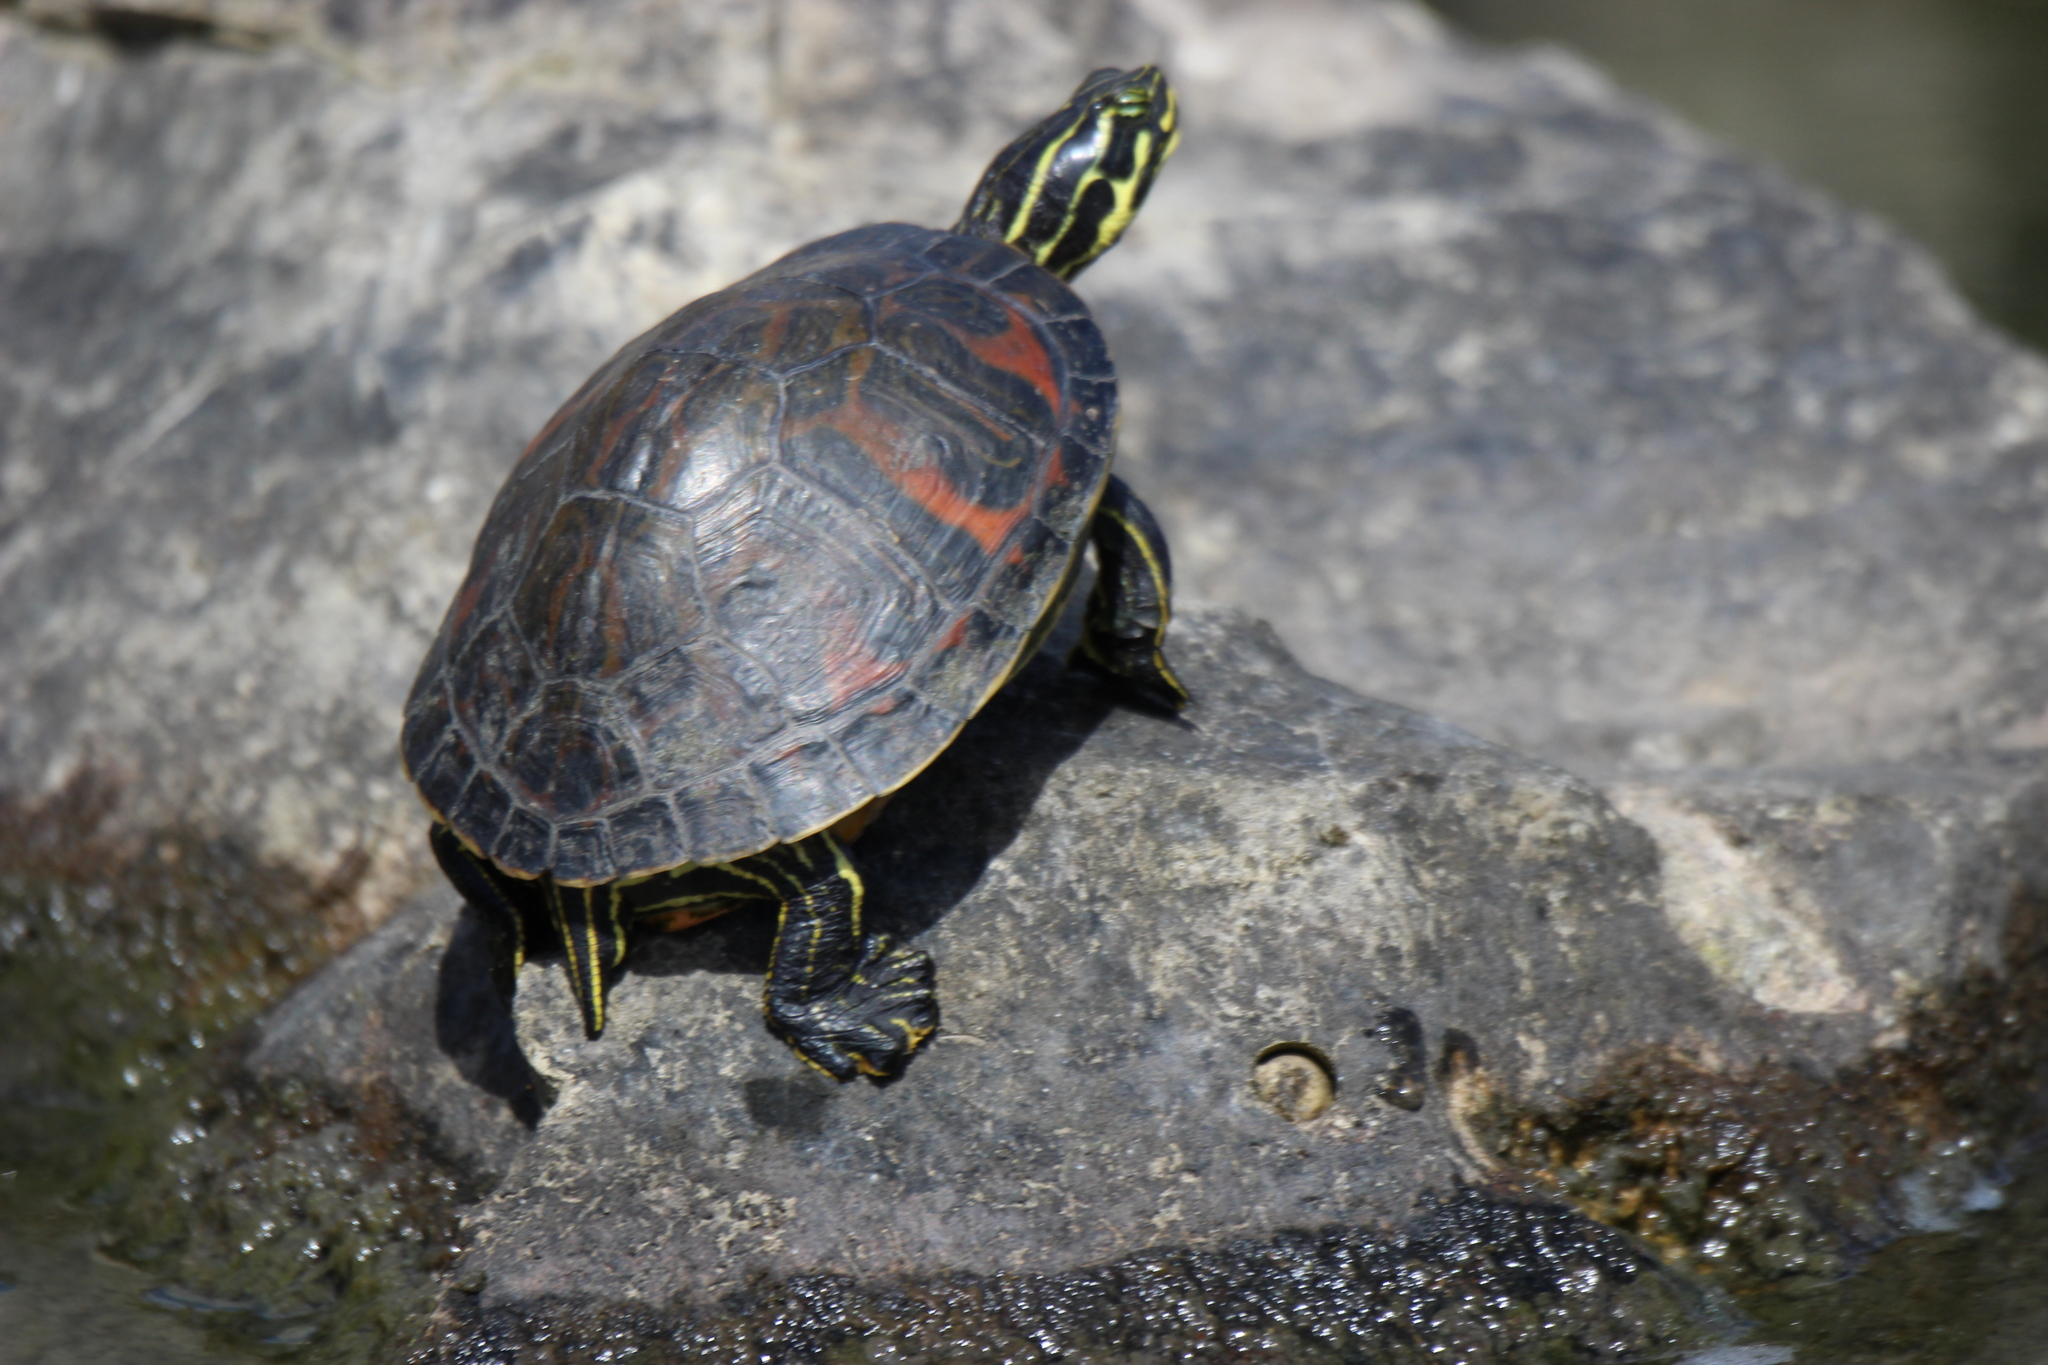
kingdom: Animalia
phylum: Chordata
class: Testudines
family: Emydidae
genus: Pseudemys
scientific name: Pseudemys nelsoni
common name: Florida red-bellied turtle
